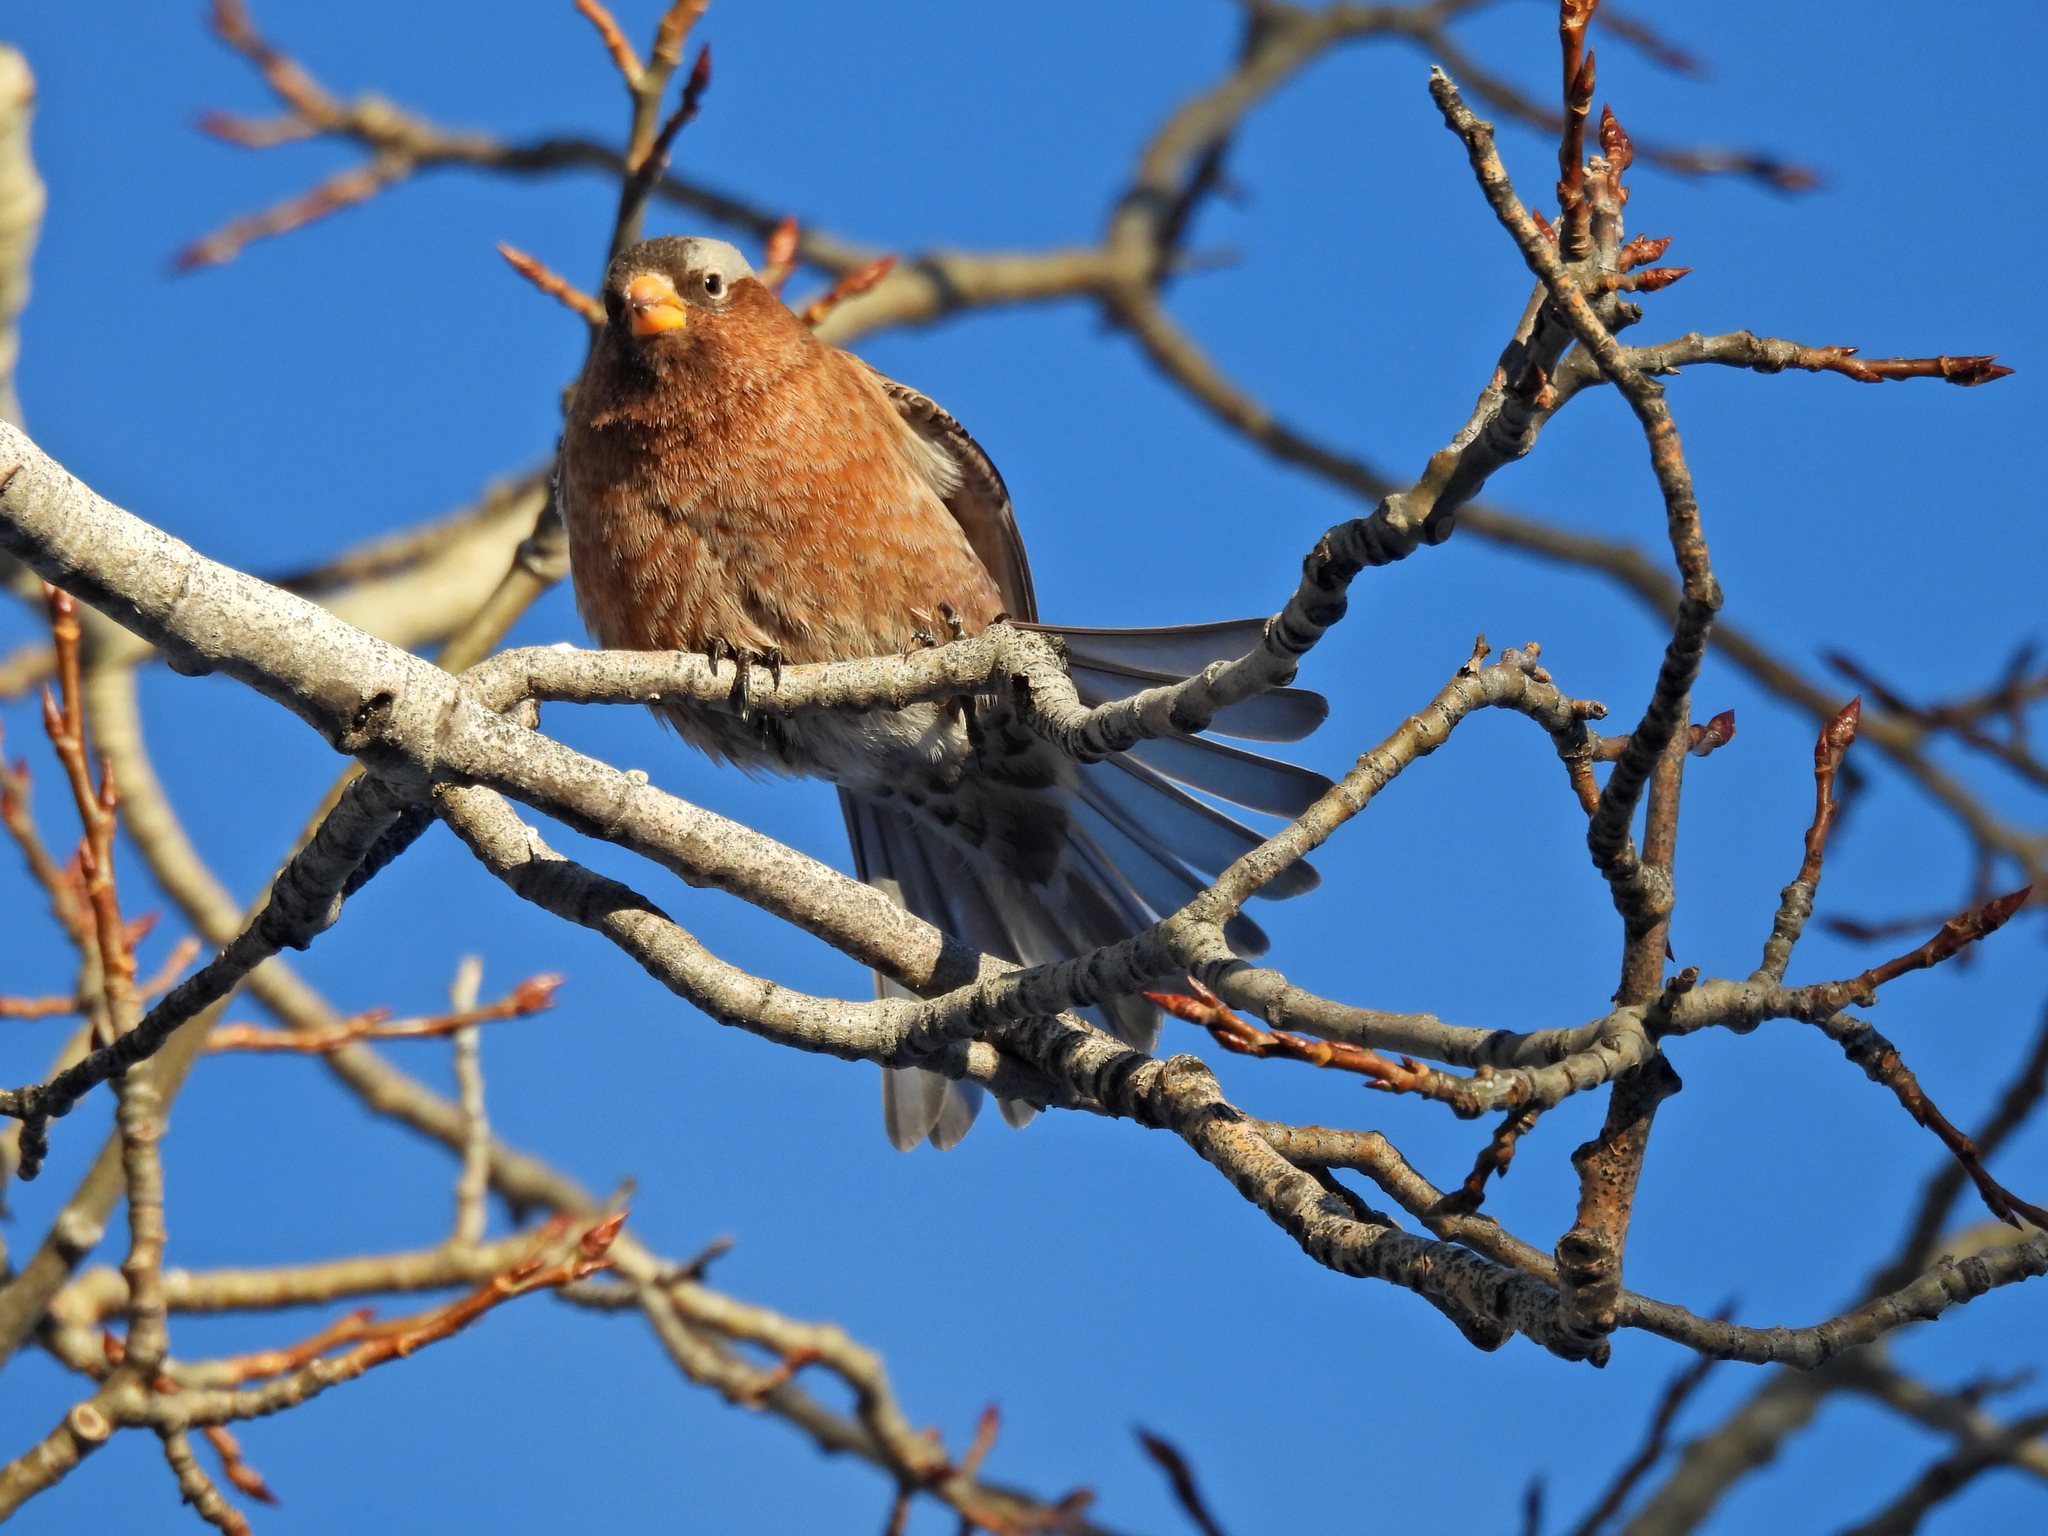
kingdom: Animalia
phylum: Chordata
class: Aves
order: Passeriformes
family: Fringillidae
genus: Leucosticte
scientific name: Leucosticte tephrocotis
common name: Gray-crowned rosy-finch
